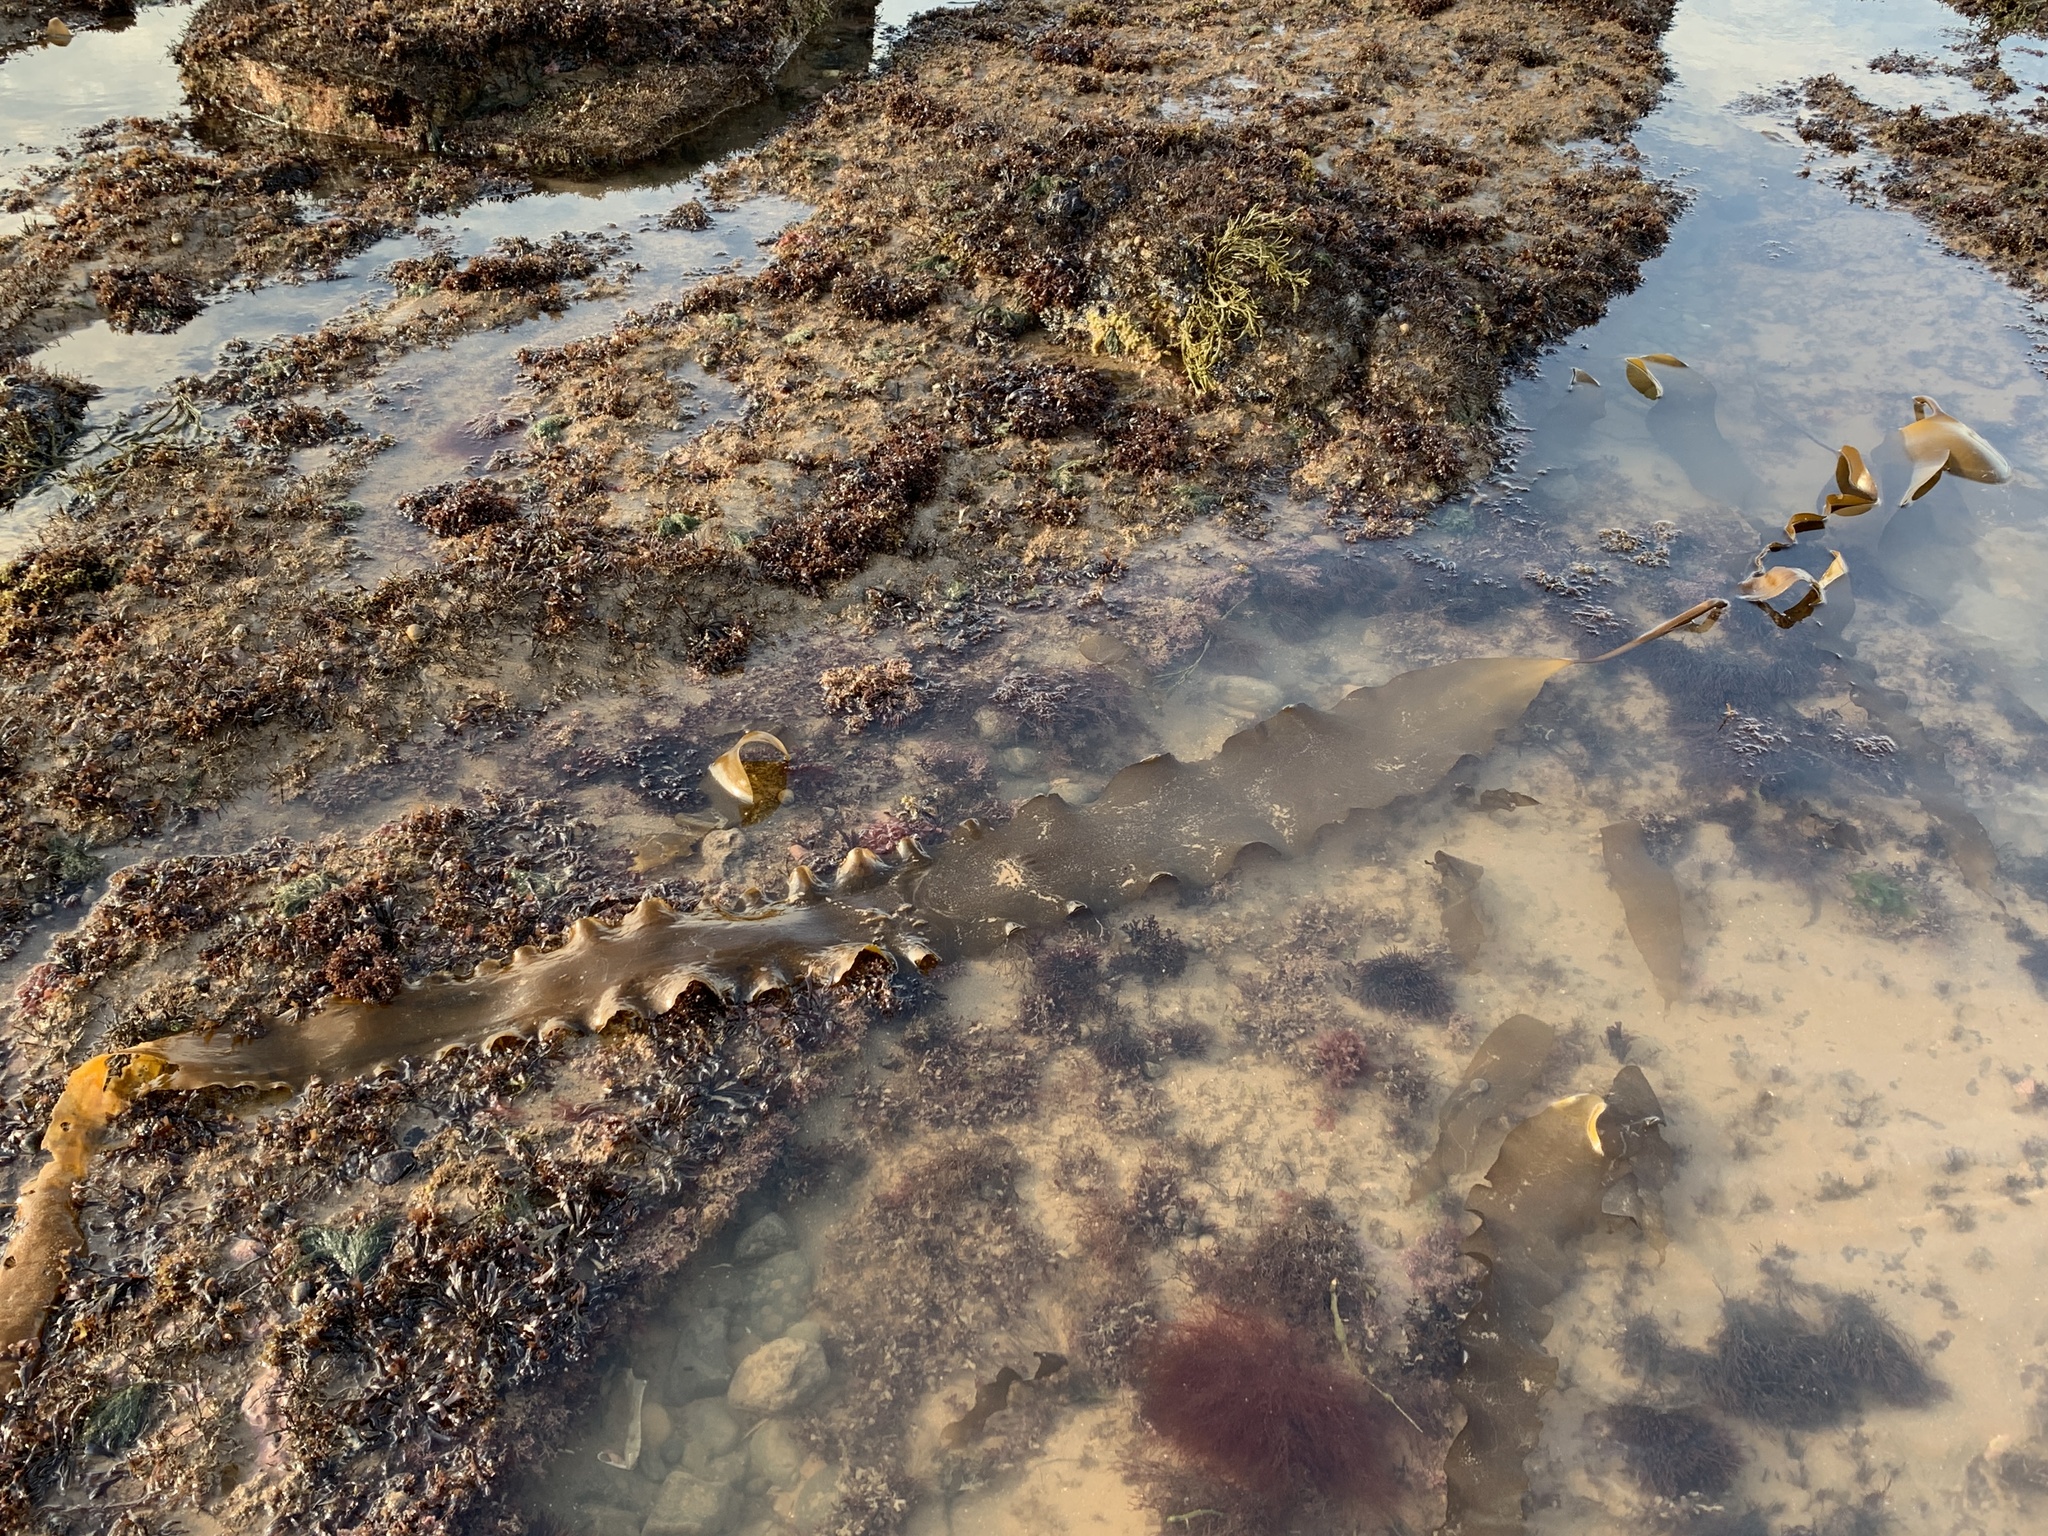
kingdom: Chromista
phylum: Ochrophyta
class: Phaeophyceae
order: Laminariales
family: Laminariaceae
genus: Saccharina
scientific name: Saccharina latissima
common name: Poor man's weather glass
